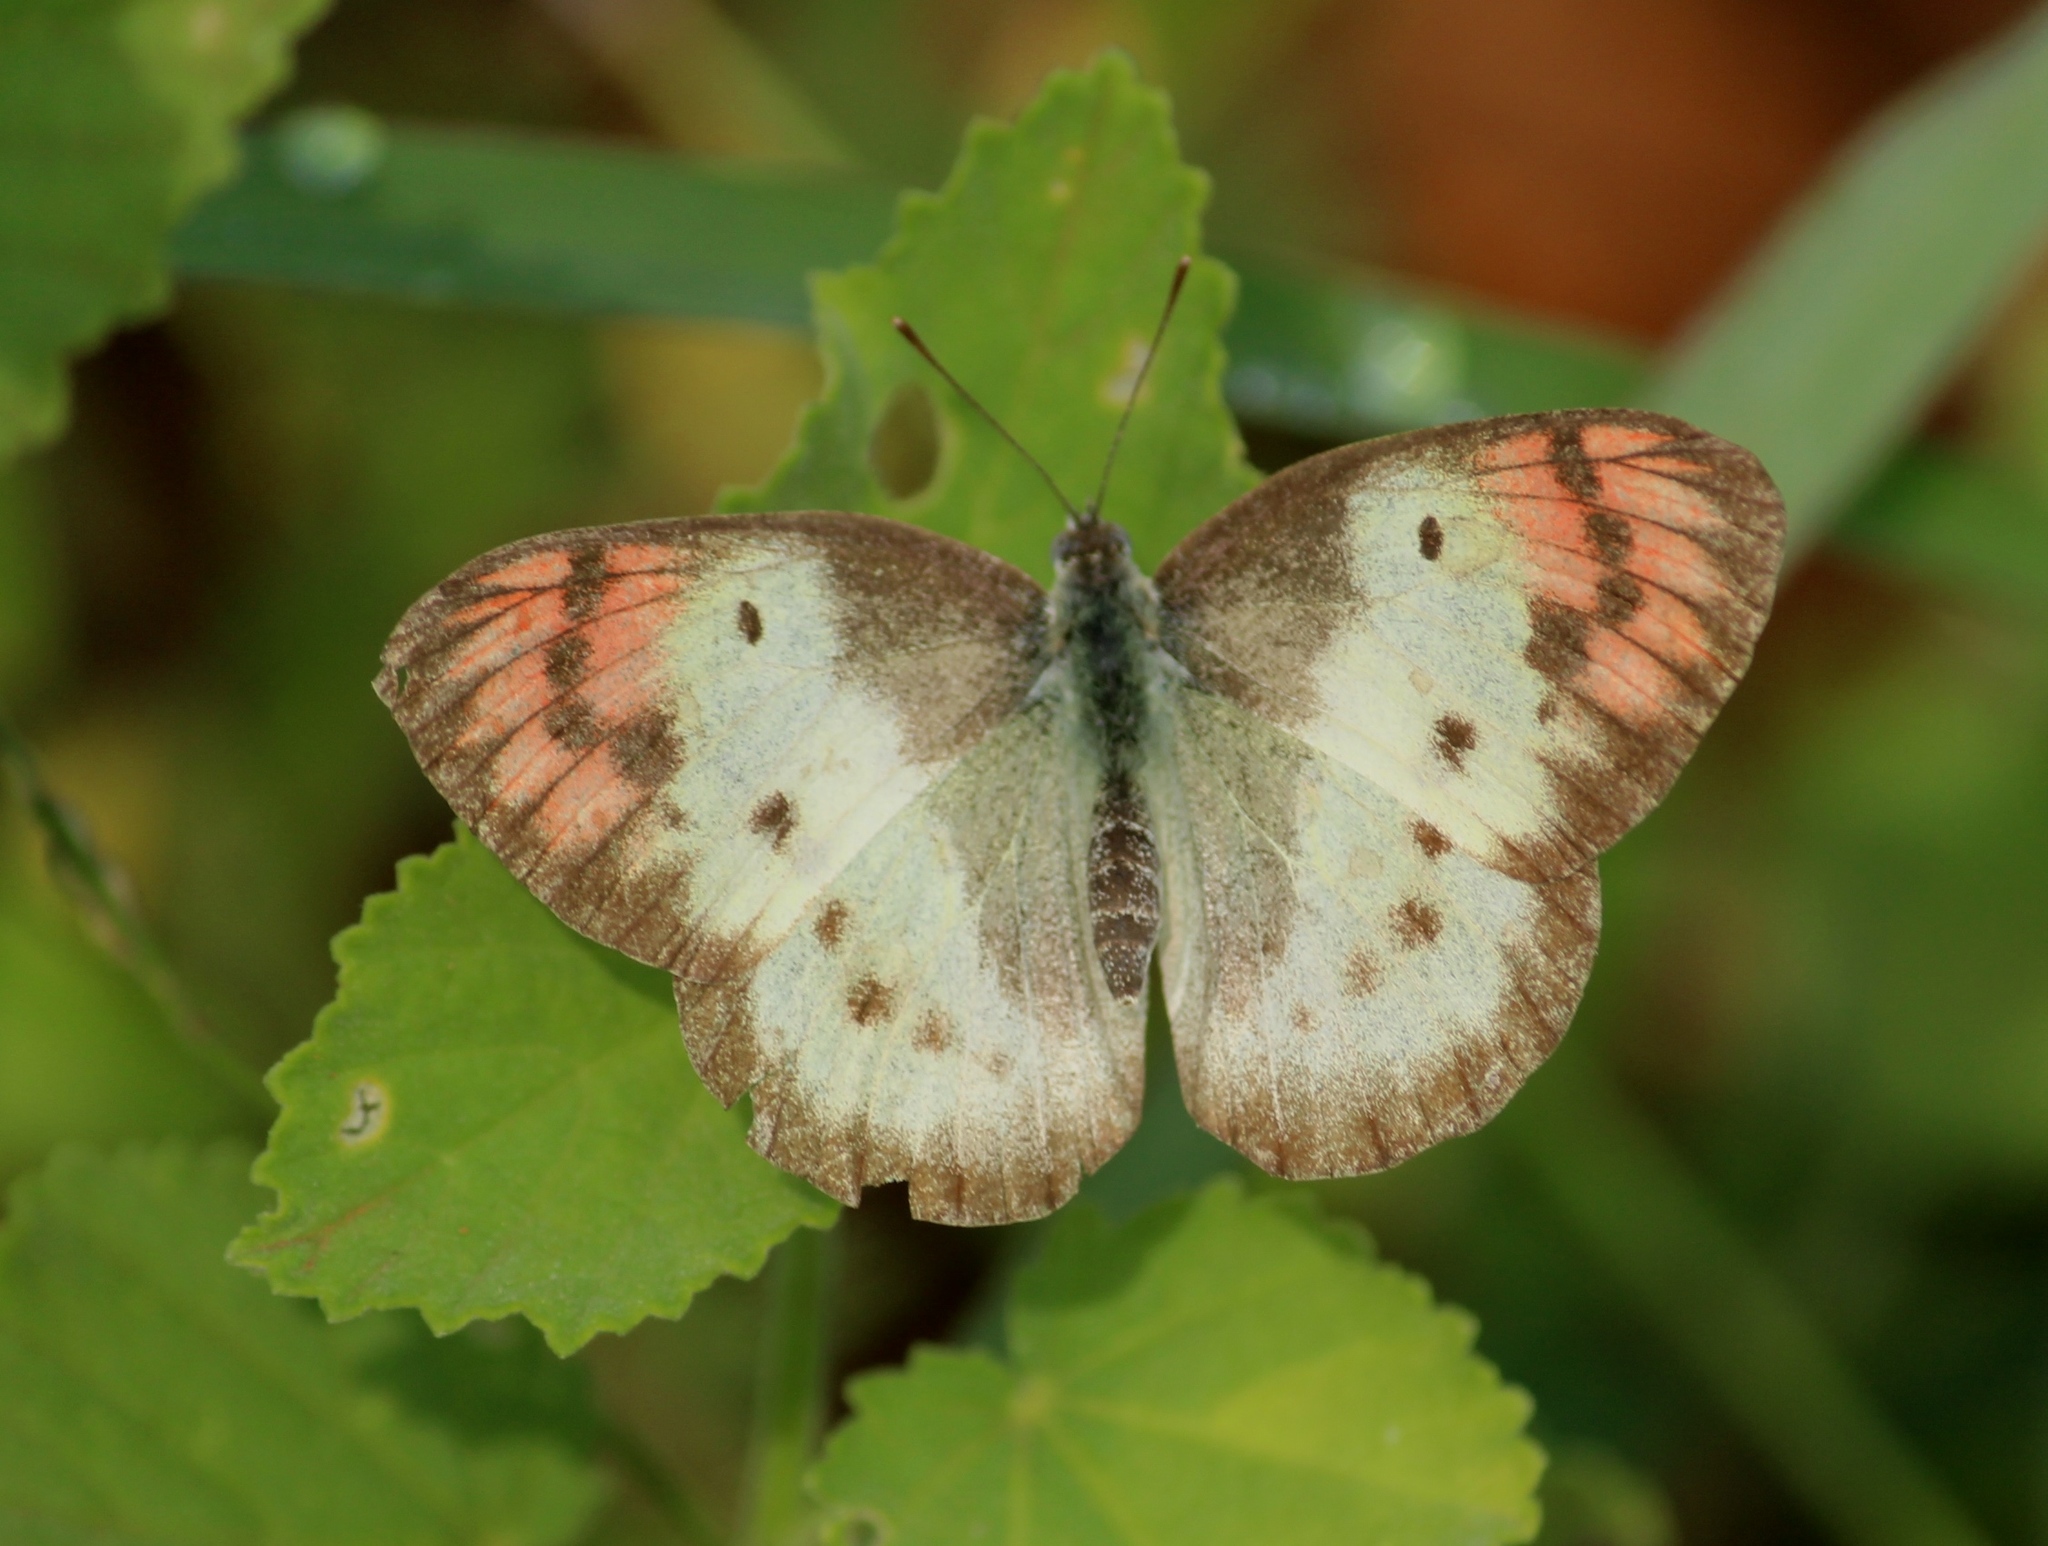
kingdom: Animalia
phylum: Arthropoda
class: Insecta
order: Lepidoptera
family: Pieridae
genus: Colotis
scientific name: Colotis danae
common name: Crimson tip
